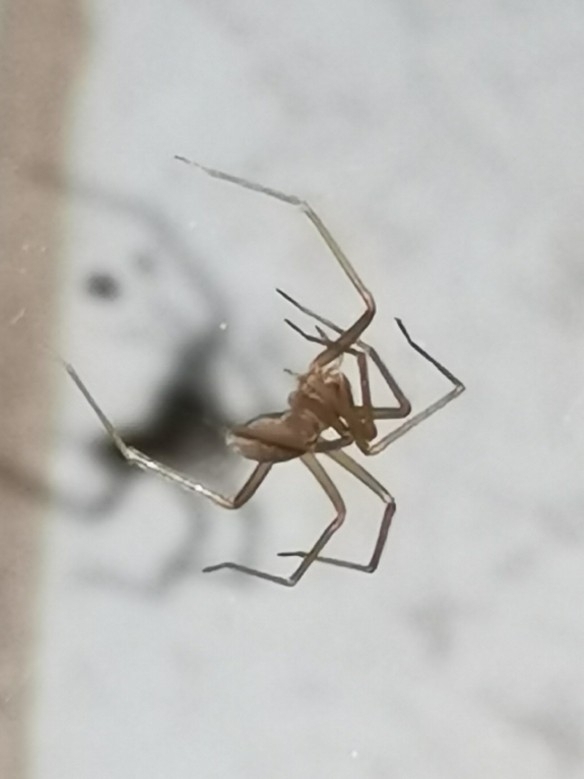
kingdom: Animalia
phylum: Arthropoda
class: Arachnida
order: Araneae
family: Sicariidae
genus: Loxosceles
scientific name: Loxosceles rufescens
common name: Mediterranean recluse spider
